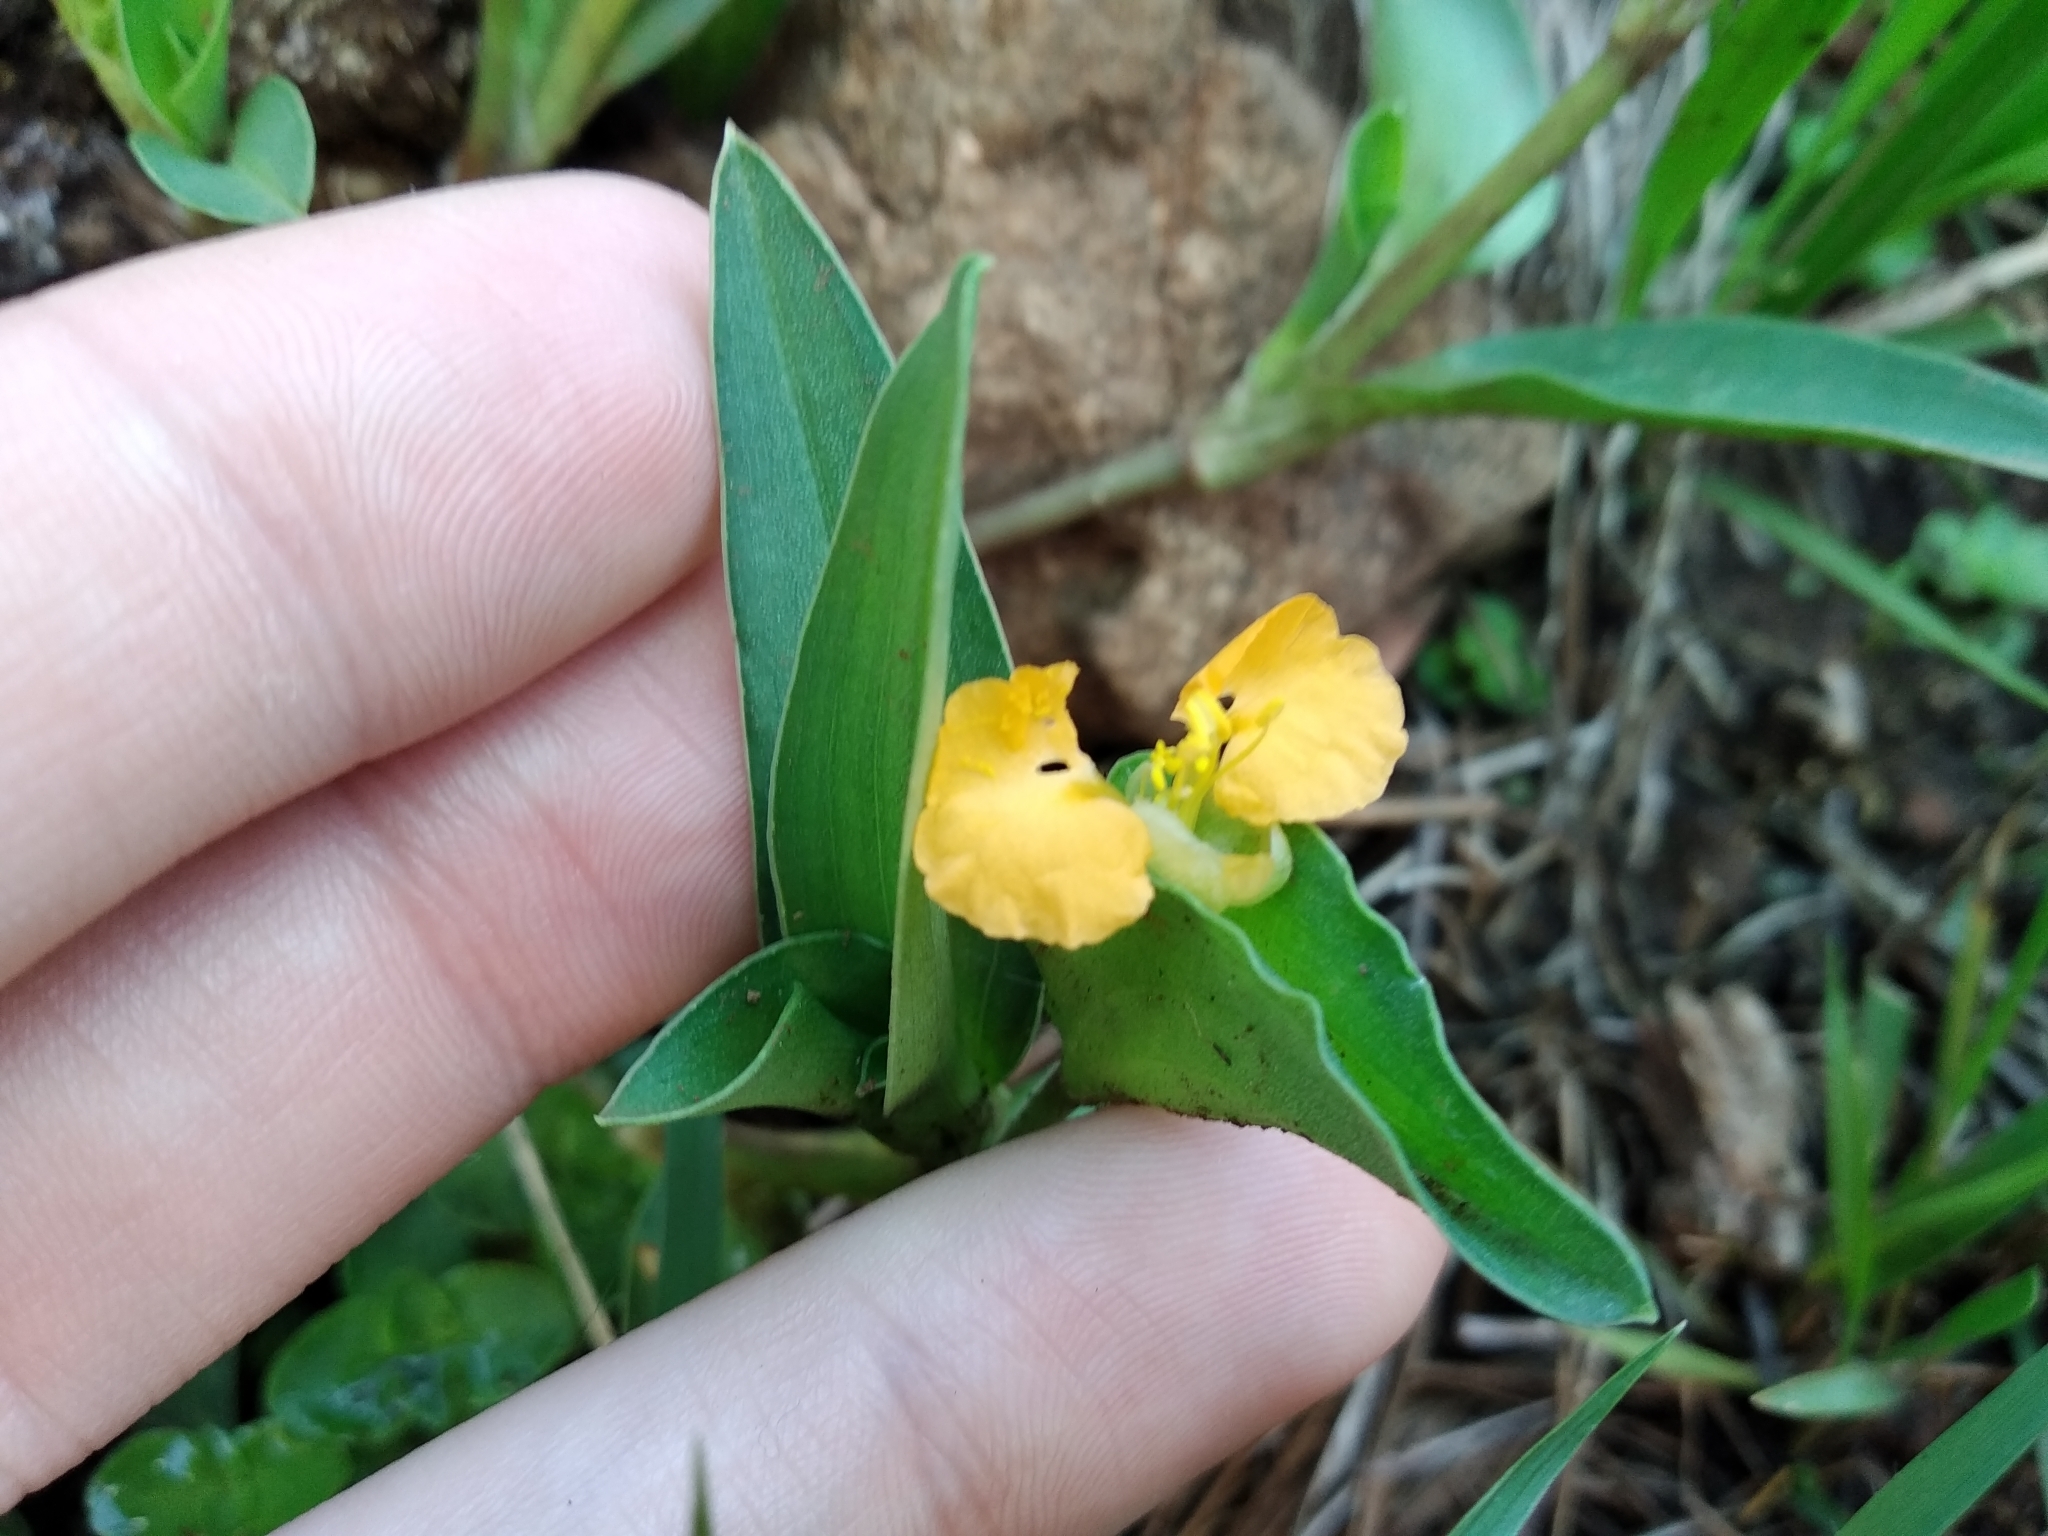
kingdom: Plantae
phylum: Tracheophyta
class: Liliopsida
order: Commelinales
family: Commelinaceae
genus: Commelina
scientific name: Commelina africana
